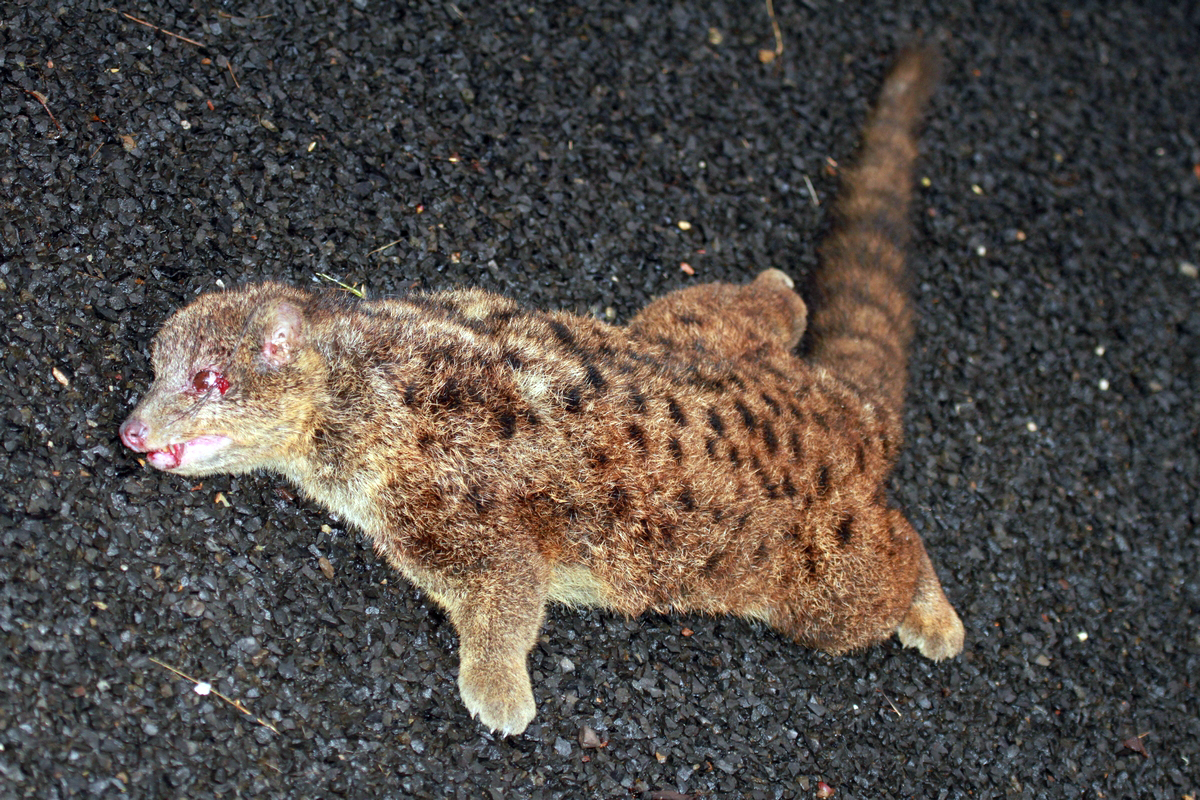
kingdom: Animalia
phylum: Chordata
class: Mammalia
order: Carnivora
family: Nandiniidae
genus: Nandinia
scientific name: Nandinia binotata
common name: African palm civet
